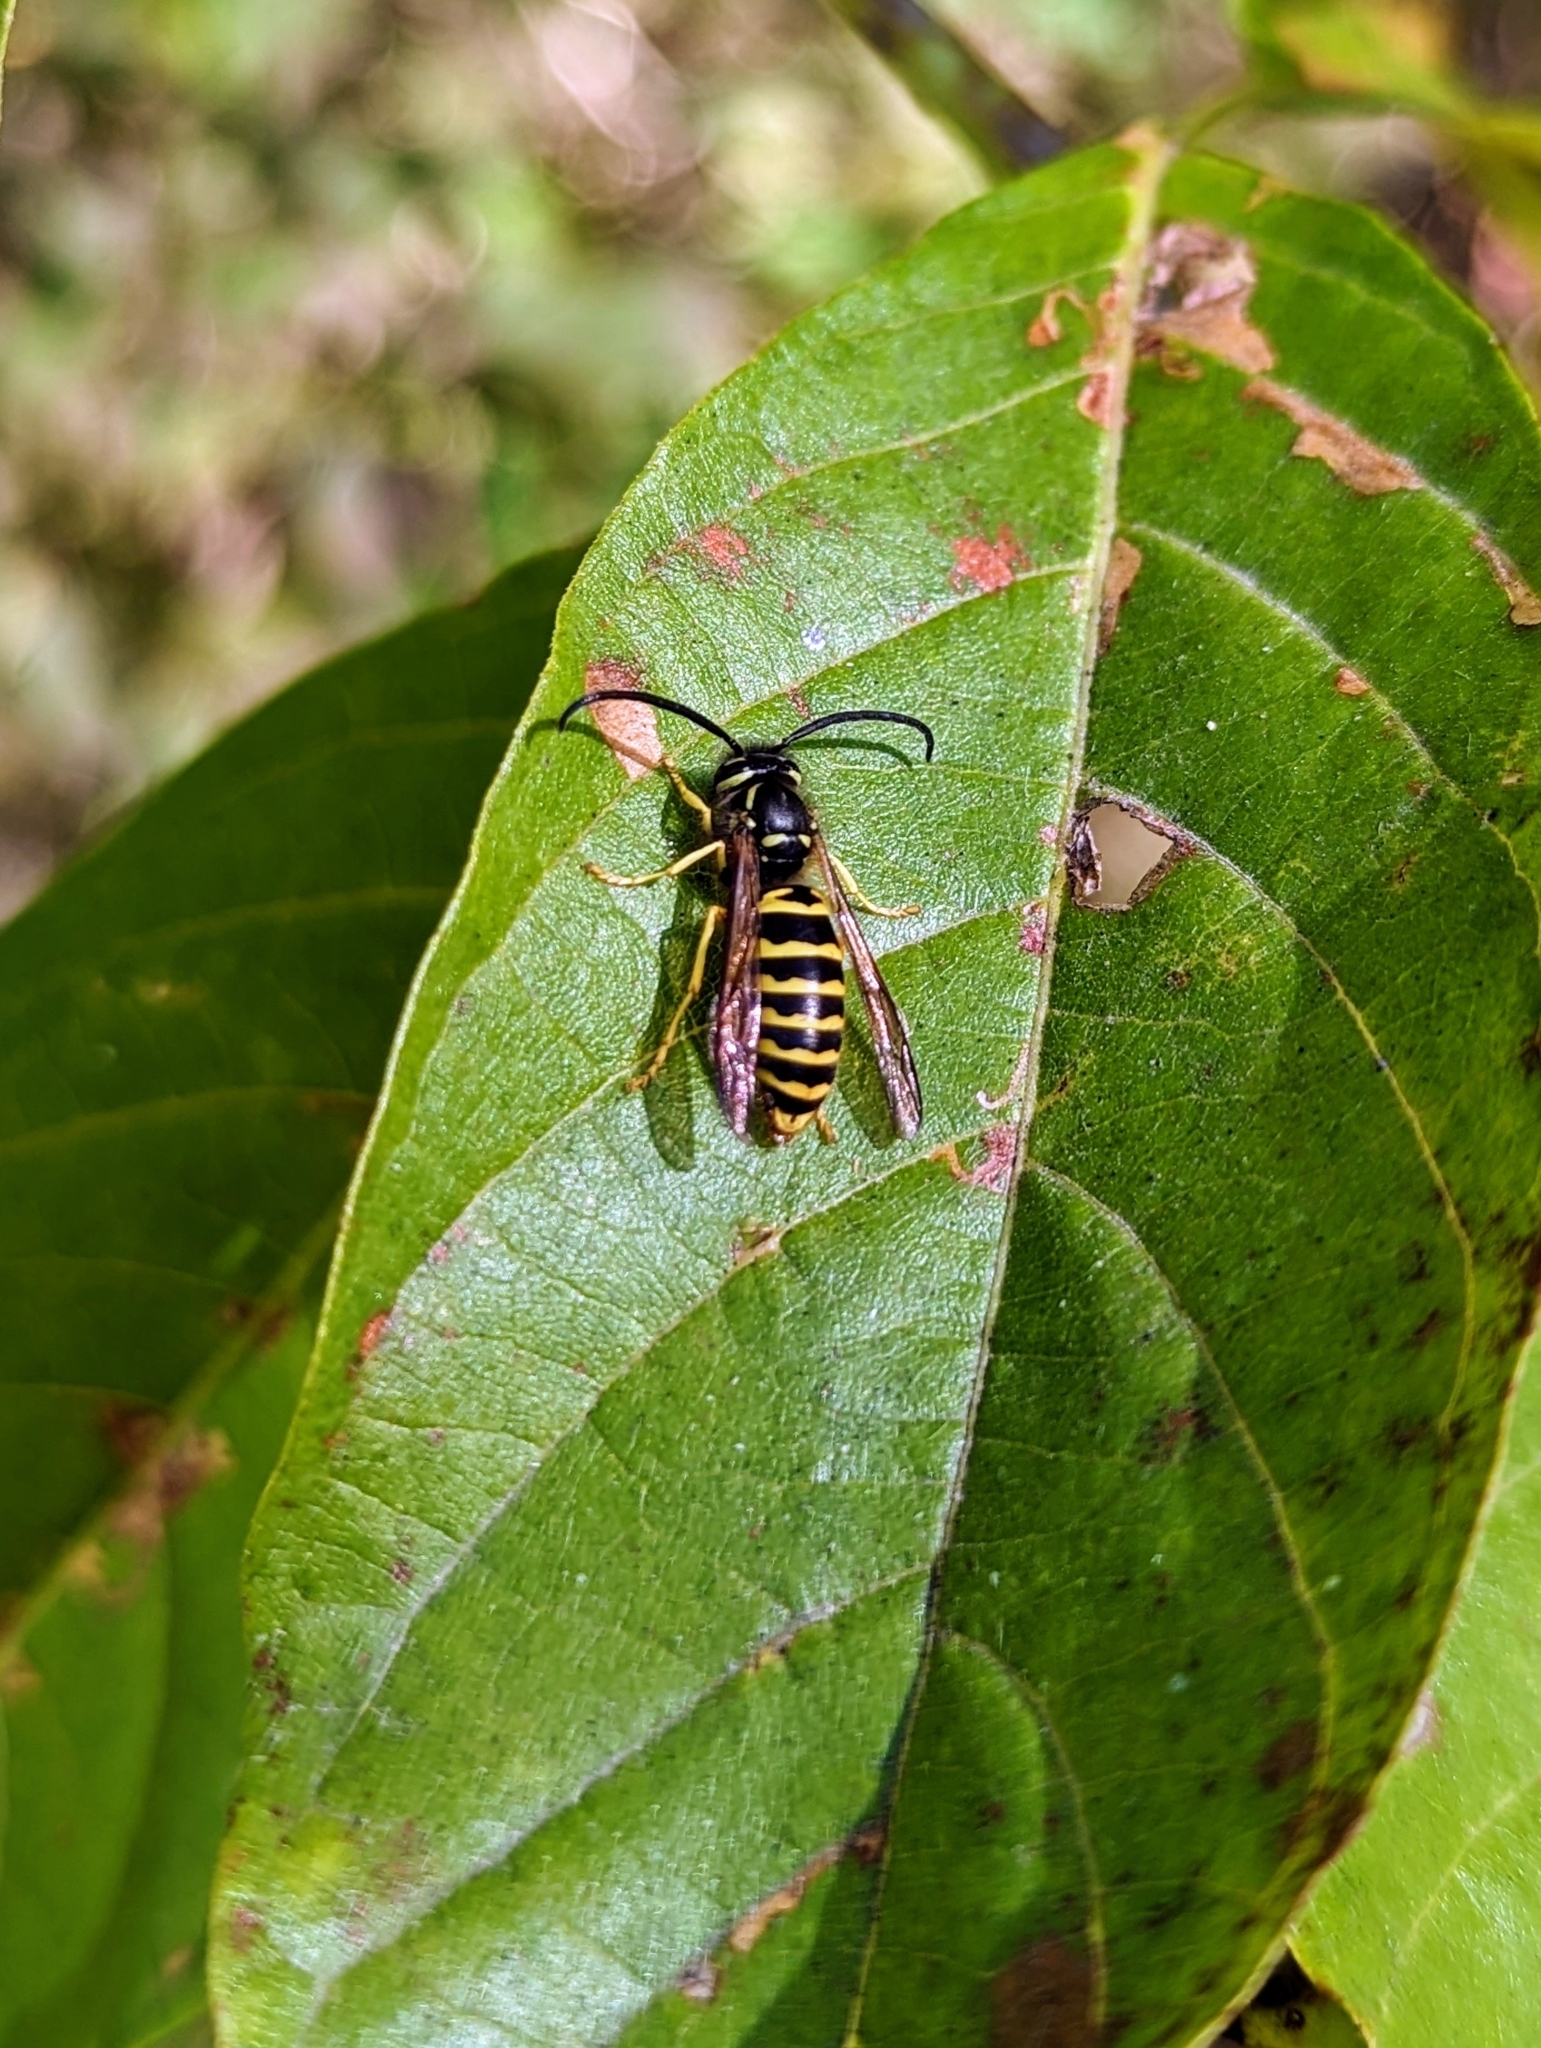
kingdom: Animalia
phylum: Arthropoda
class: Insecta
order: Hymenoptera
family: Vespidae
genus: Vespula
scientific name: Vespula maculifrons
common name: Eastern yellowjacket
